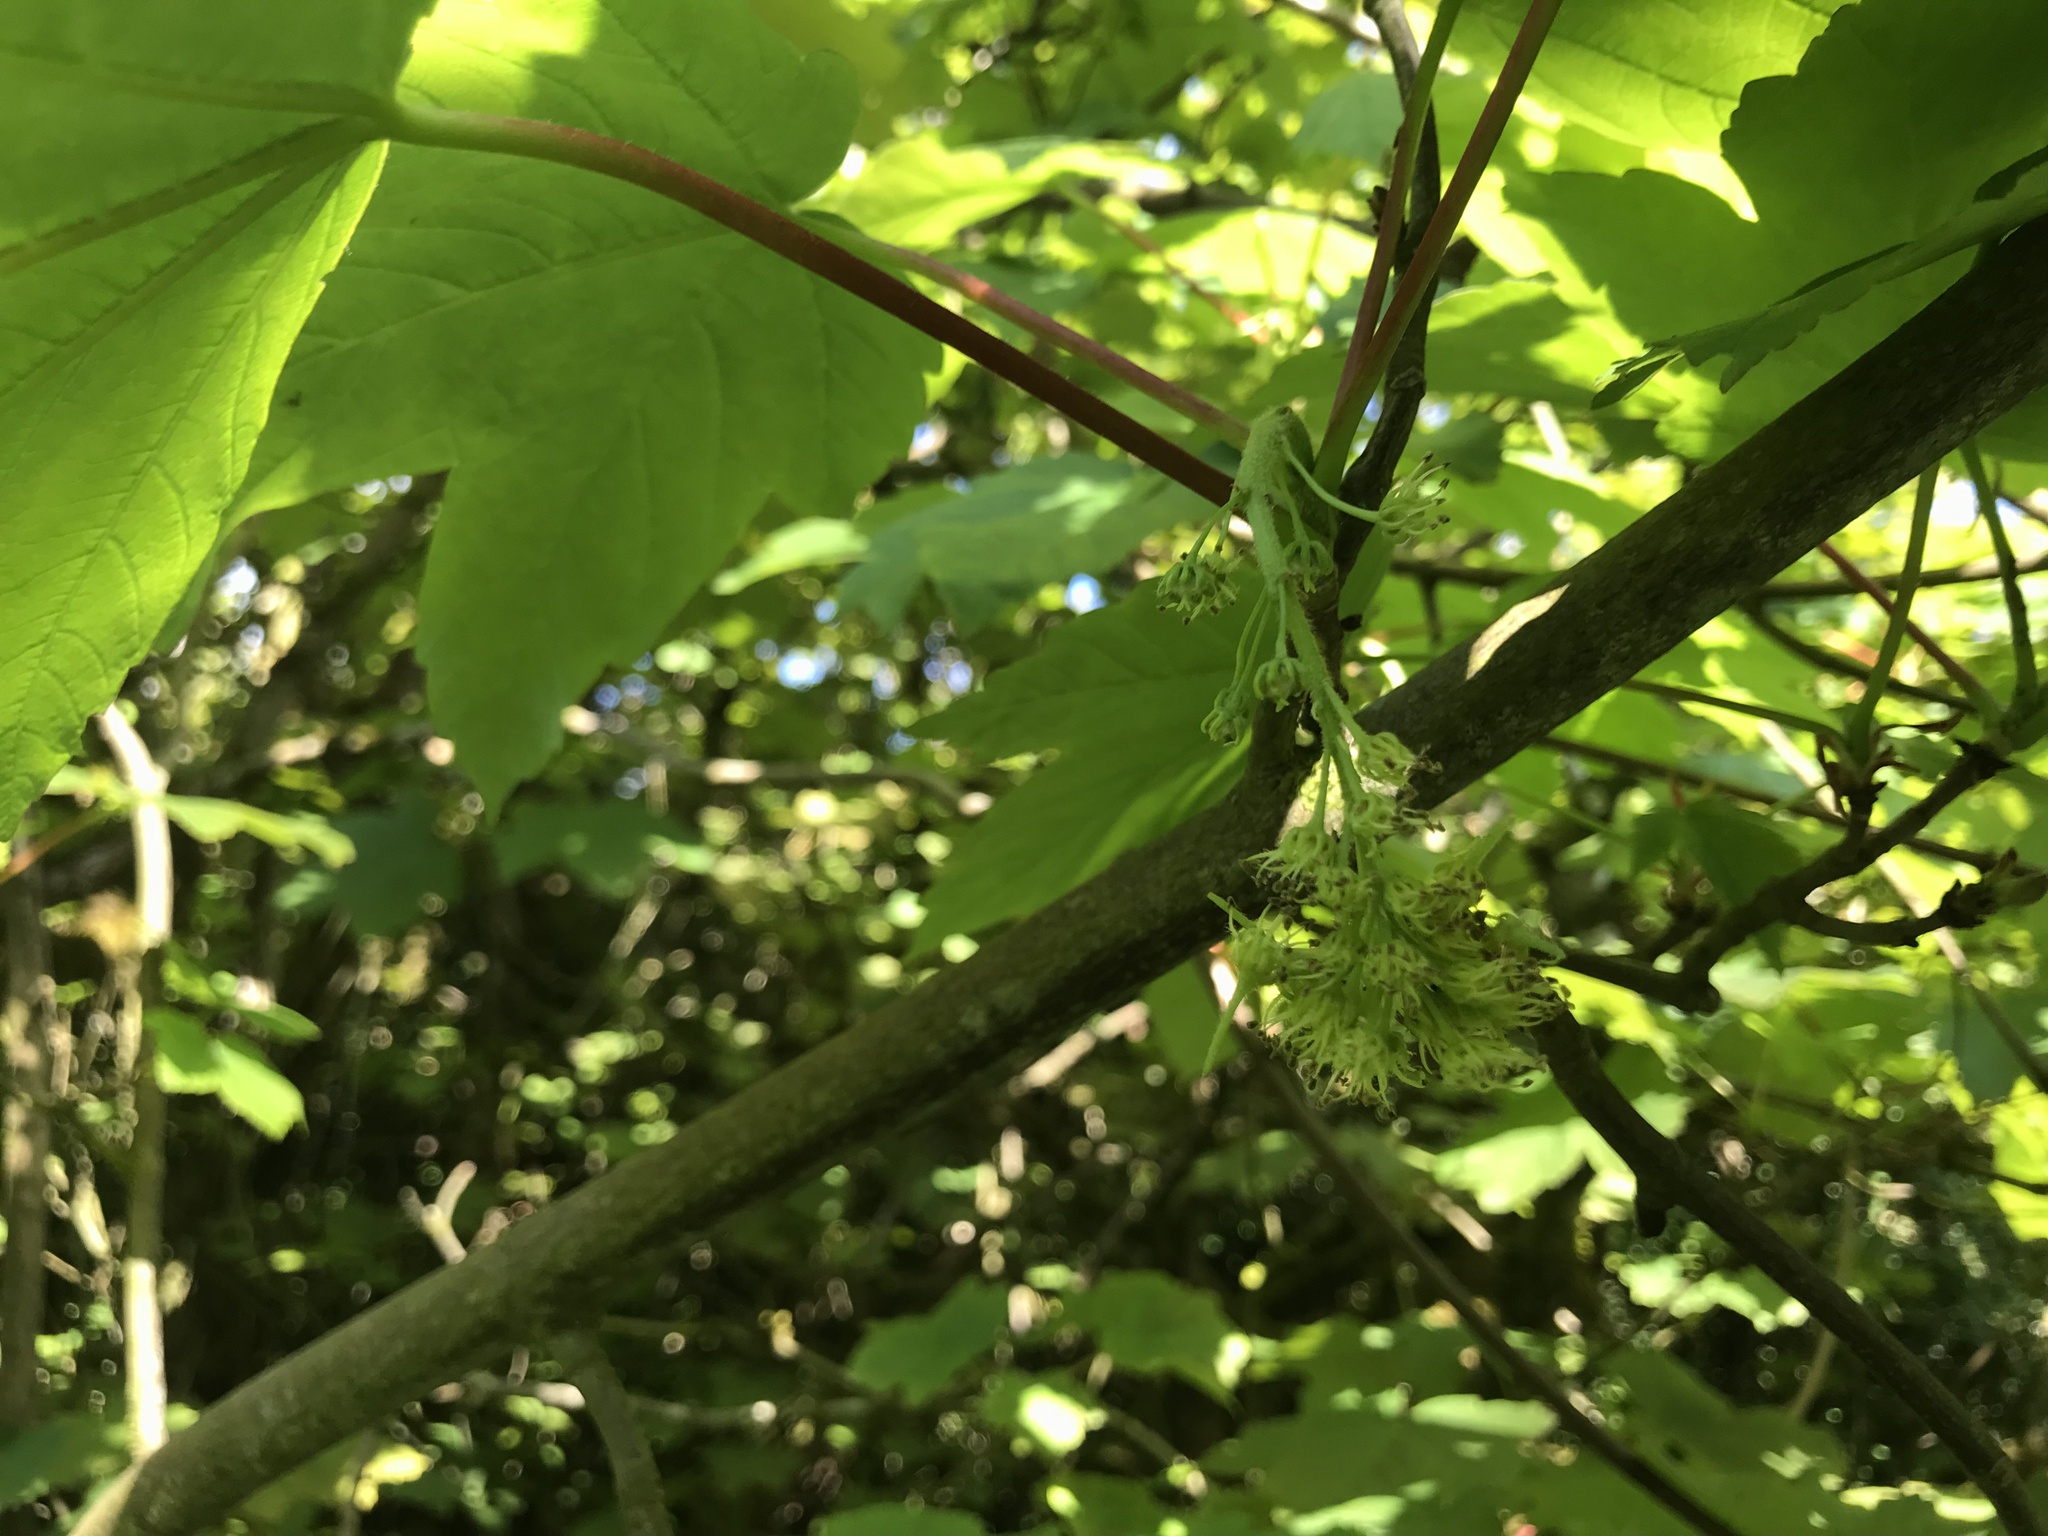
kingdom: Plantae
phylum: Tracheophyta
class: Magnoliopsida
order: Sapindales
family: Sapindaceae
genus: Acer
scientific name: Acer pseudoplatanus
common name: Sycamore
